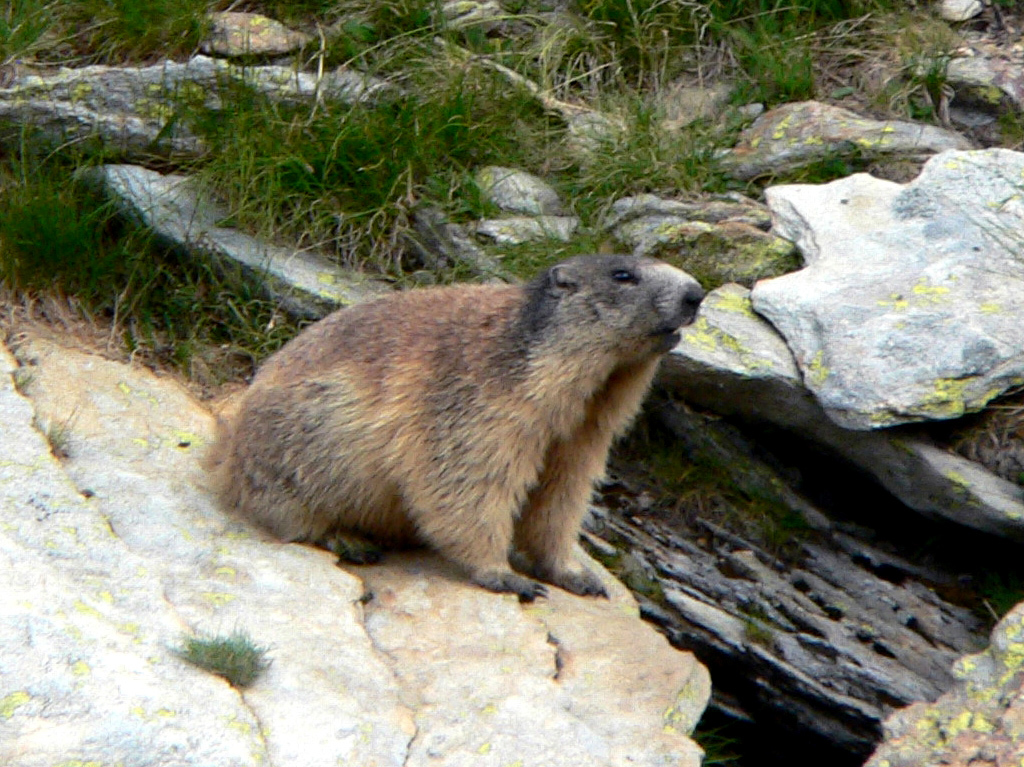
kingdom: Animalia
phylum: Chordata
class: Mammalia
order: Rodentia
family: Sciuridae
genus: Marmota
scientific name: Marmota marmota
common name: Alpine marmot
